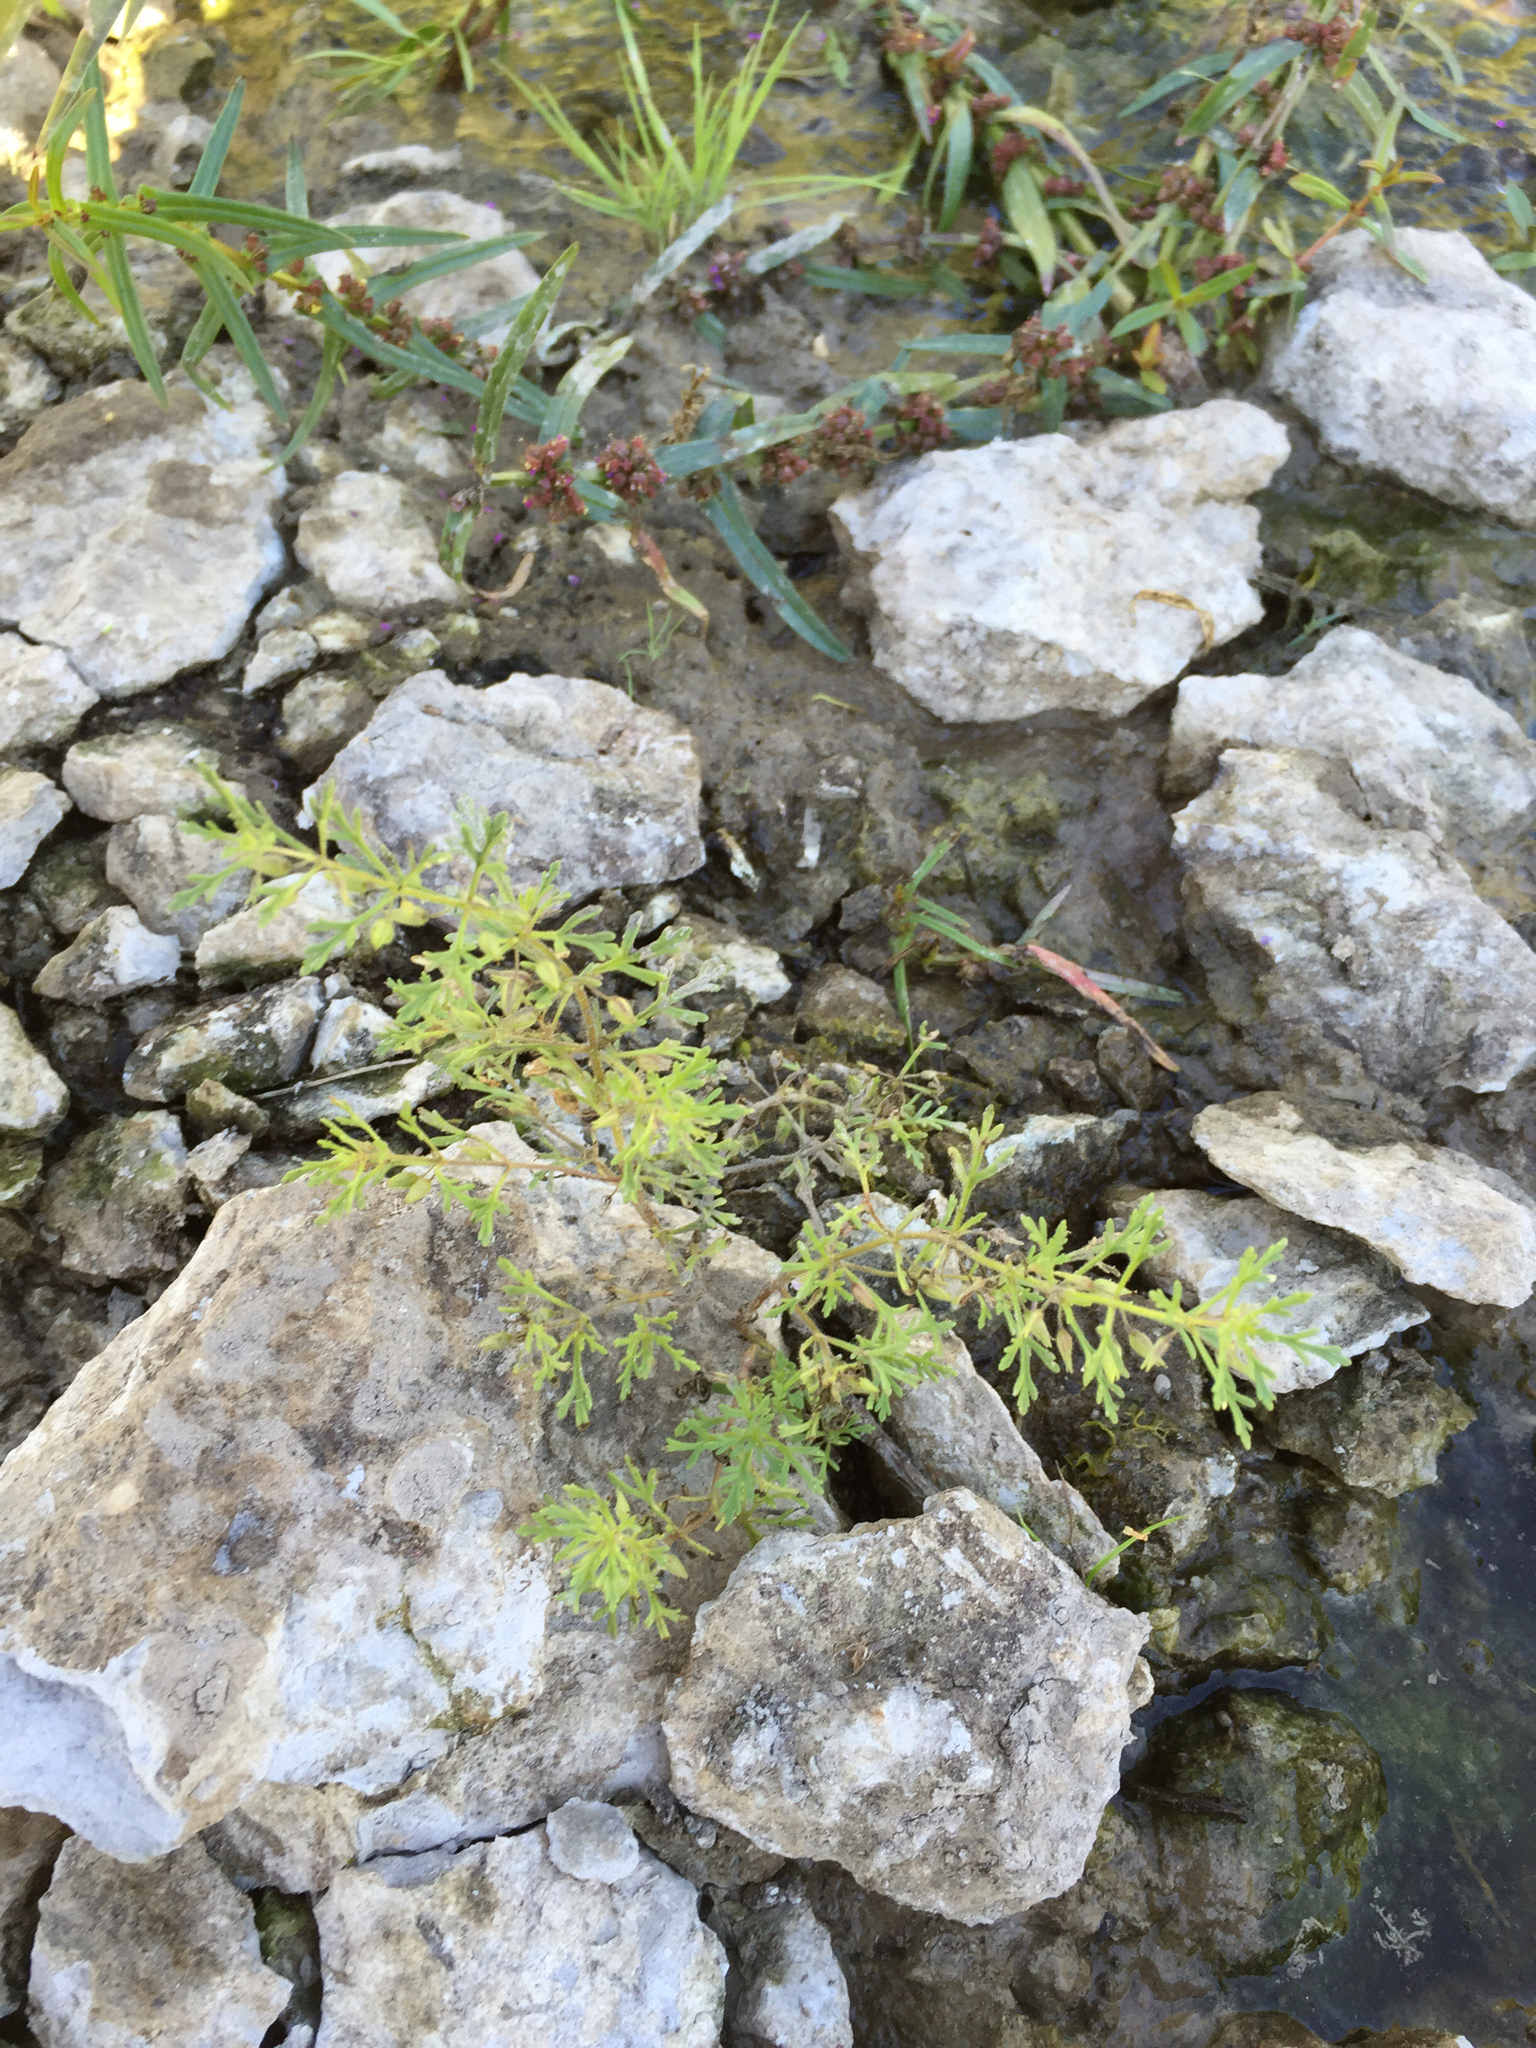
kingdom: Plantae
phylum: Tracheophyta
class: Magnoliopsida
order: Lamiales
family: Plantaginaceae
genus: Leucospora
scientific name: Leucospora multifida
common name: Narrow-leaf paleseed
